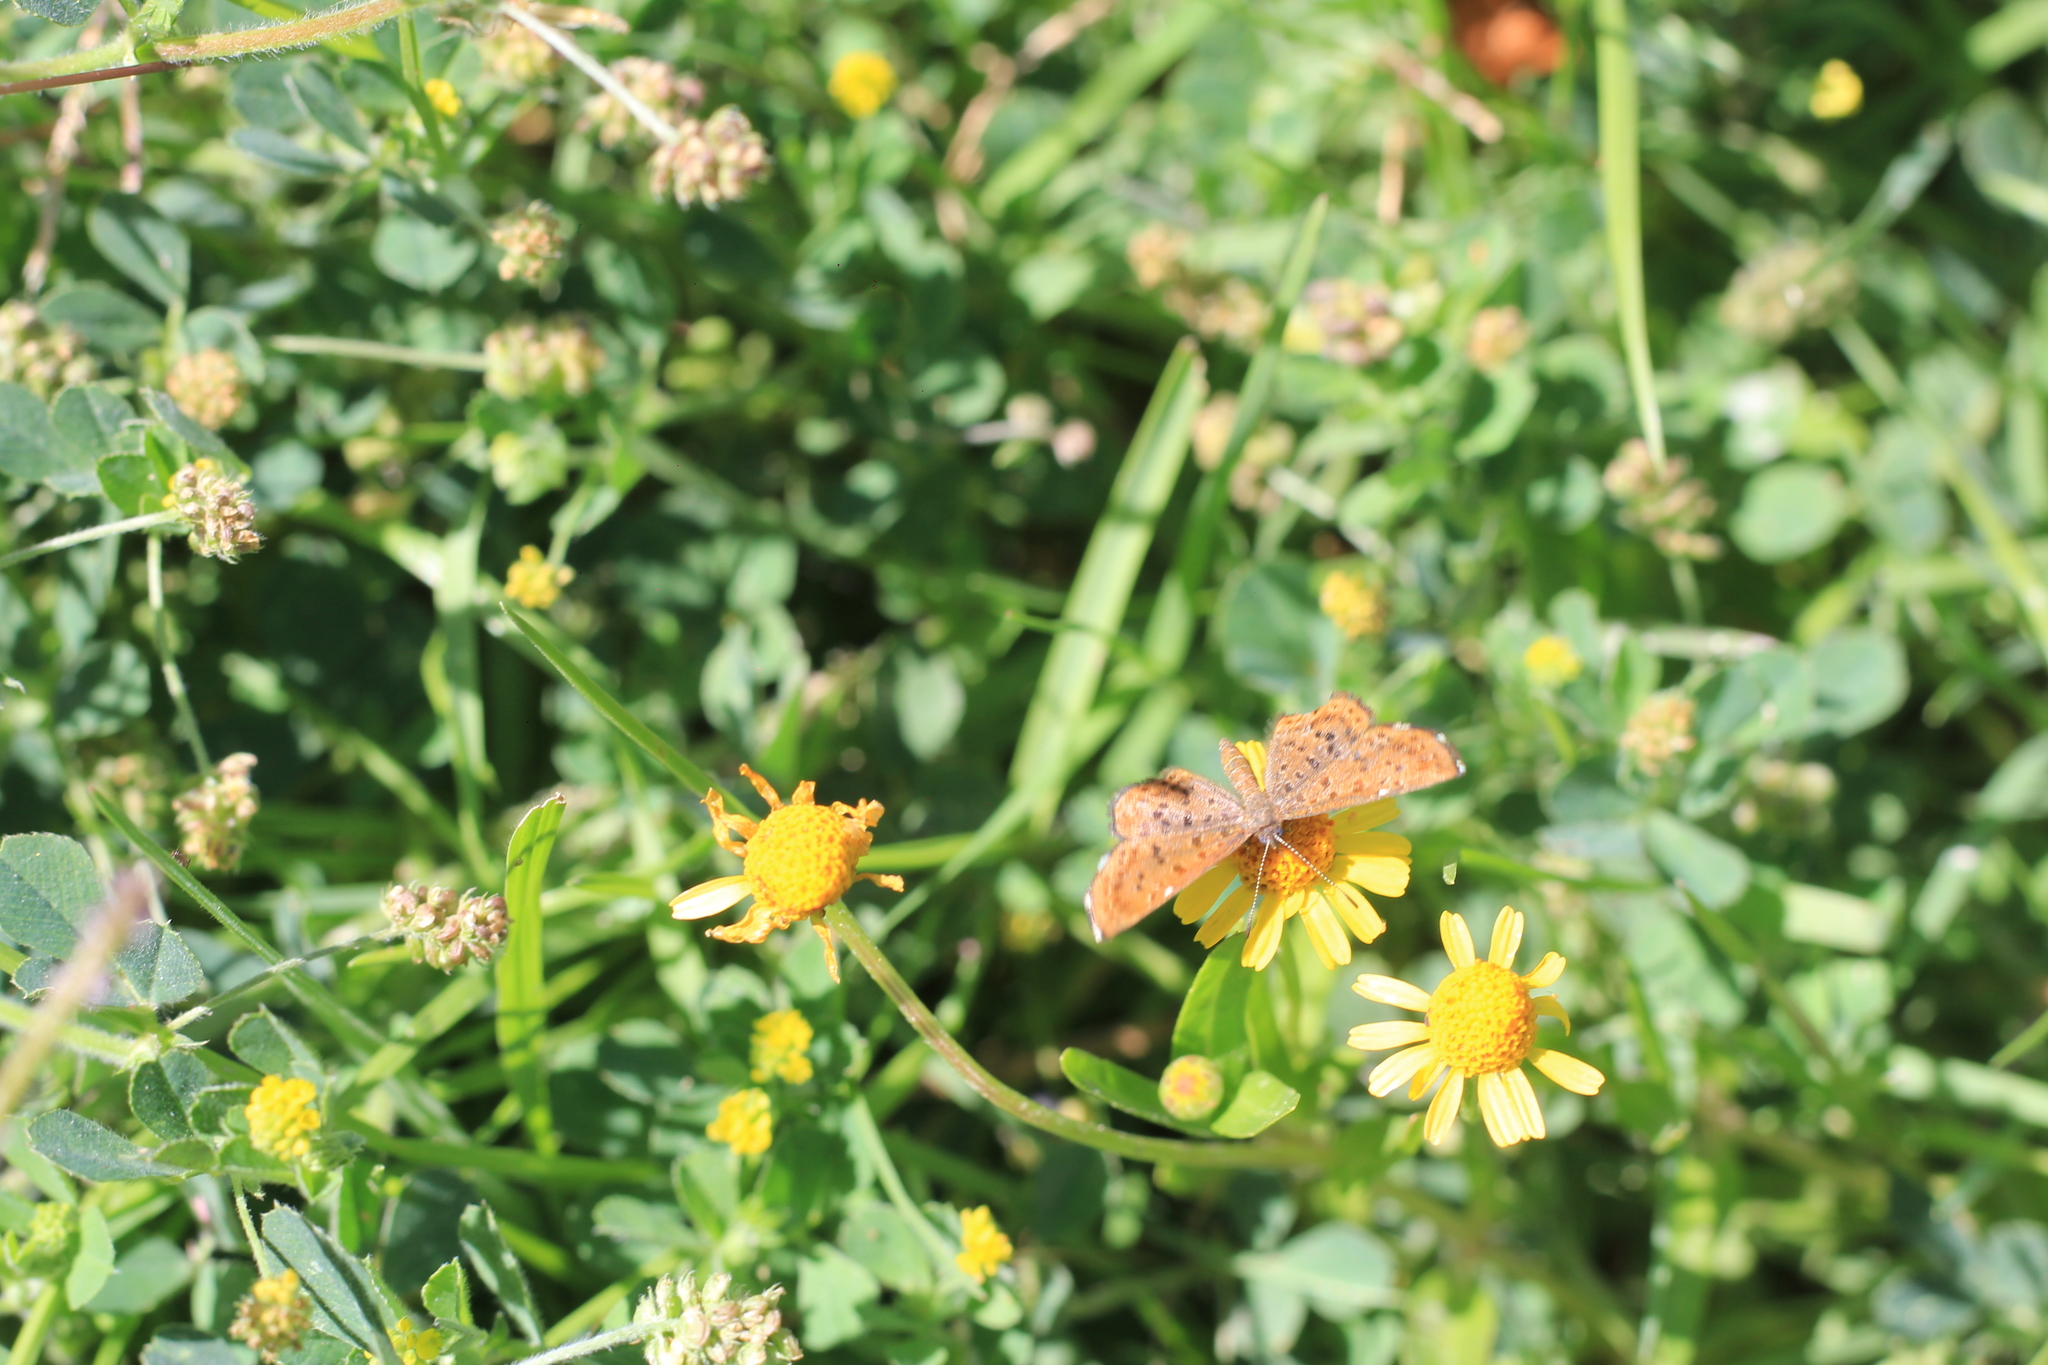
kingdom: Animalia
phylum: Arthropoda
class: Insecta
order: Lepidoptera
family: Riodinidae
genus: Teenie
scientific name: Teenie tinea
